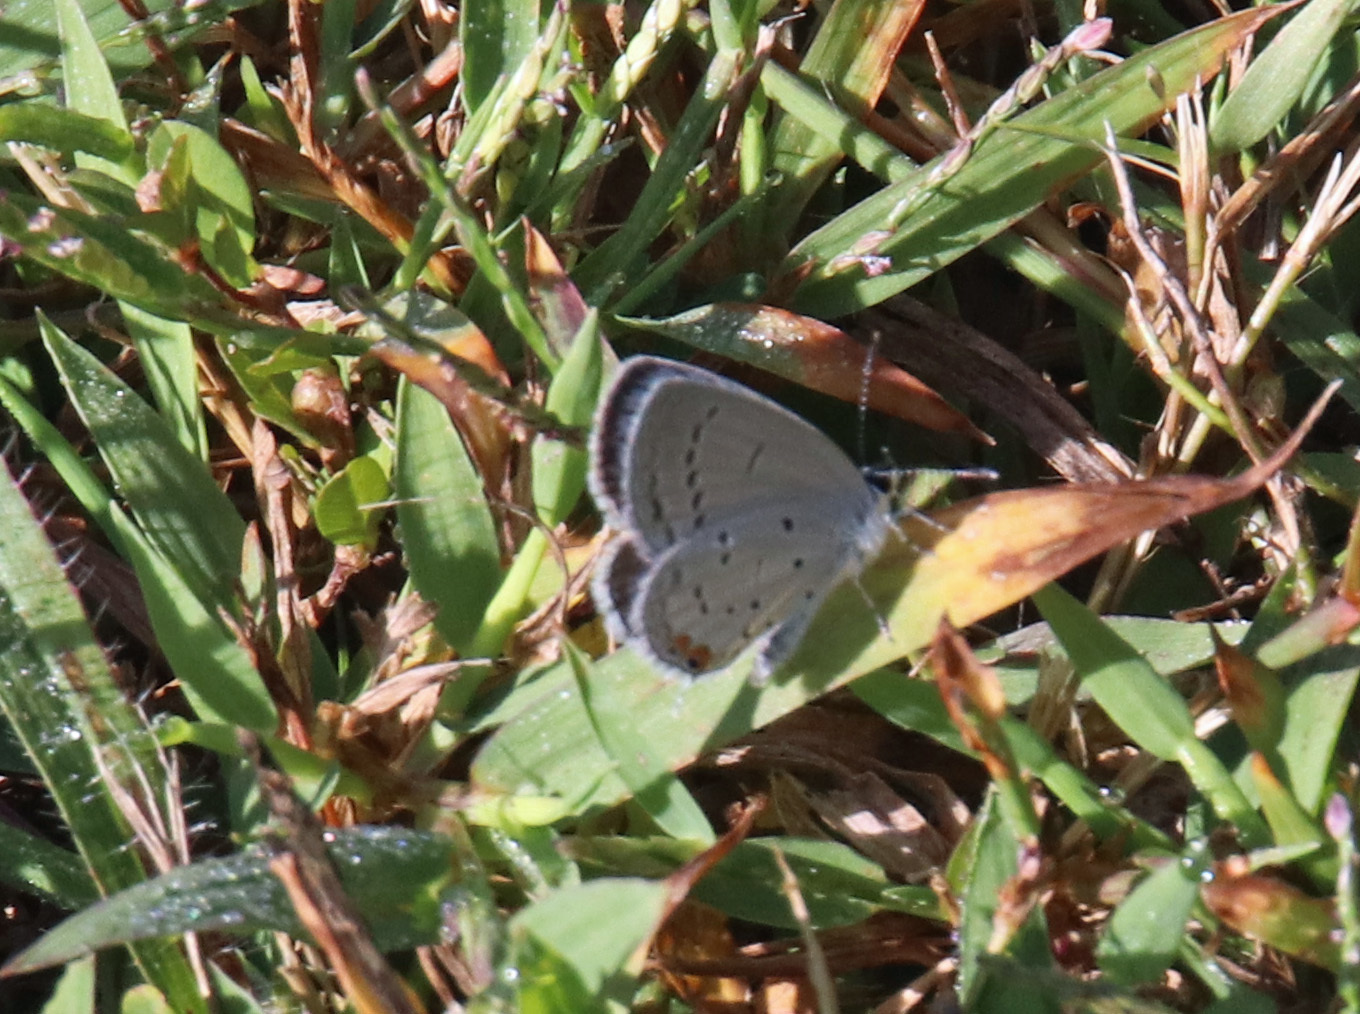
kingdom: Animalia
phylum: Arthropoda
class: Insecta
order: Lepidoptera
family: Lycaenidae
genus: Elkalyce
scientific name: Elkalyce comyntas
